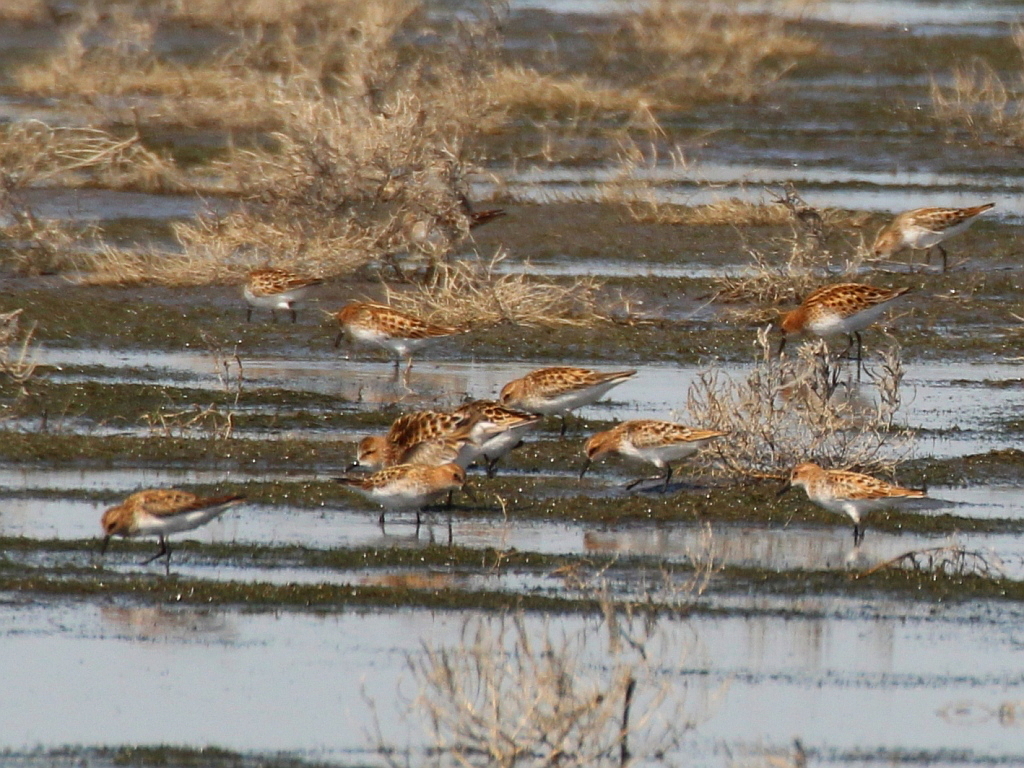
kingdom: Animalia
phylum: Chordata
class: Aves
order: Charadriiformes
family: Scolopacidae
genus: Calidris
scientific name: Calidris minuta
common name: Little stint
